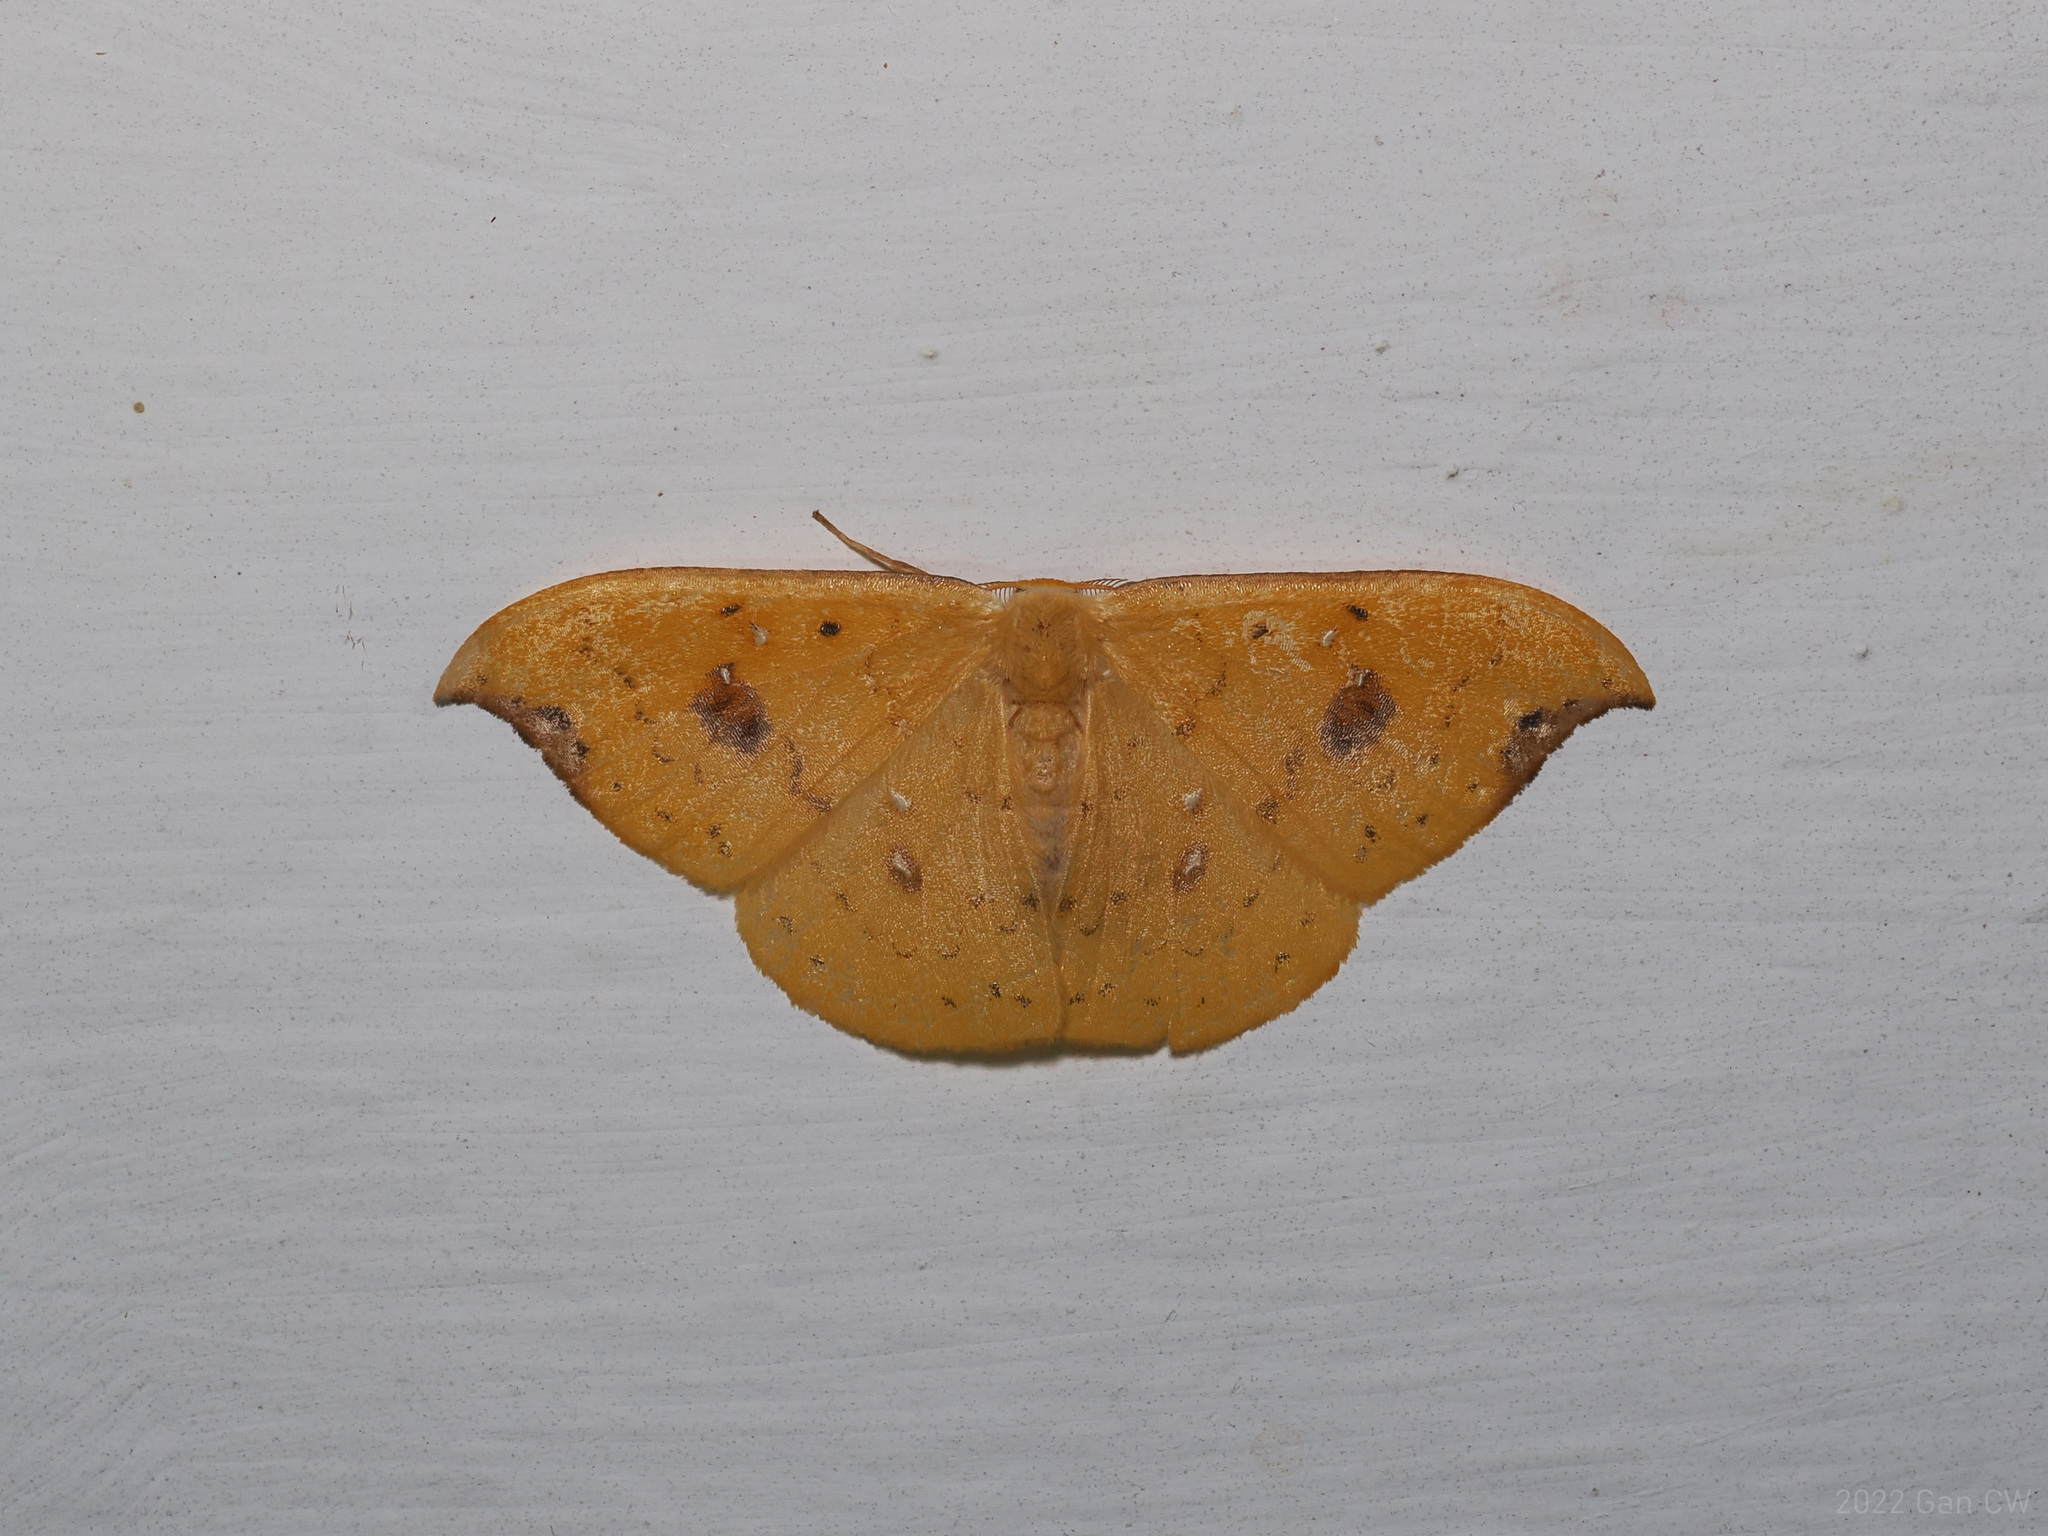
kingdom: Animalia
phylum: Arthropoda
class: Insecta
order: Lepidoptera
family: Drepanidae
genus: Tridrepana
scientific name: Tridrepana fulvata
